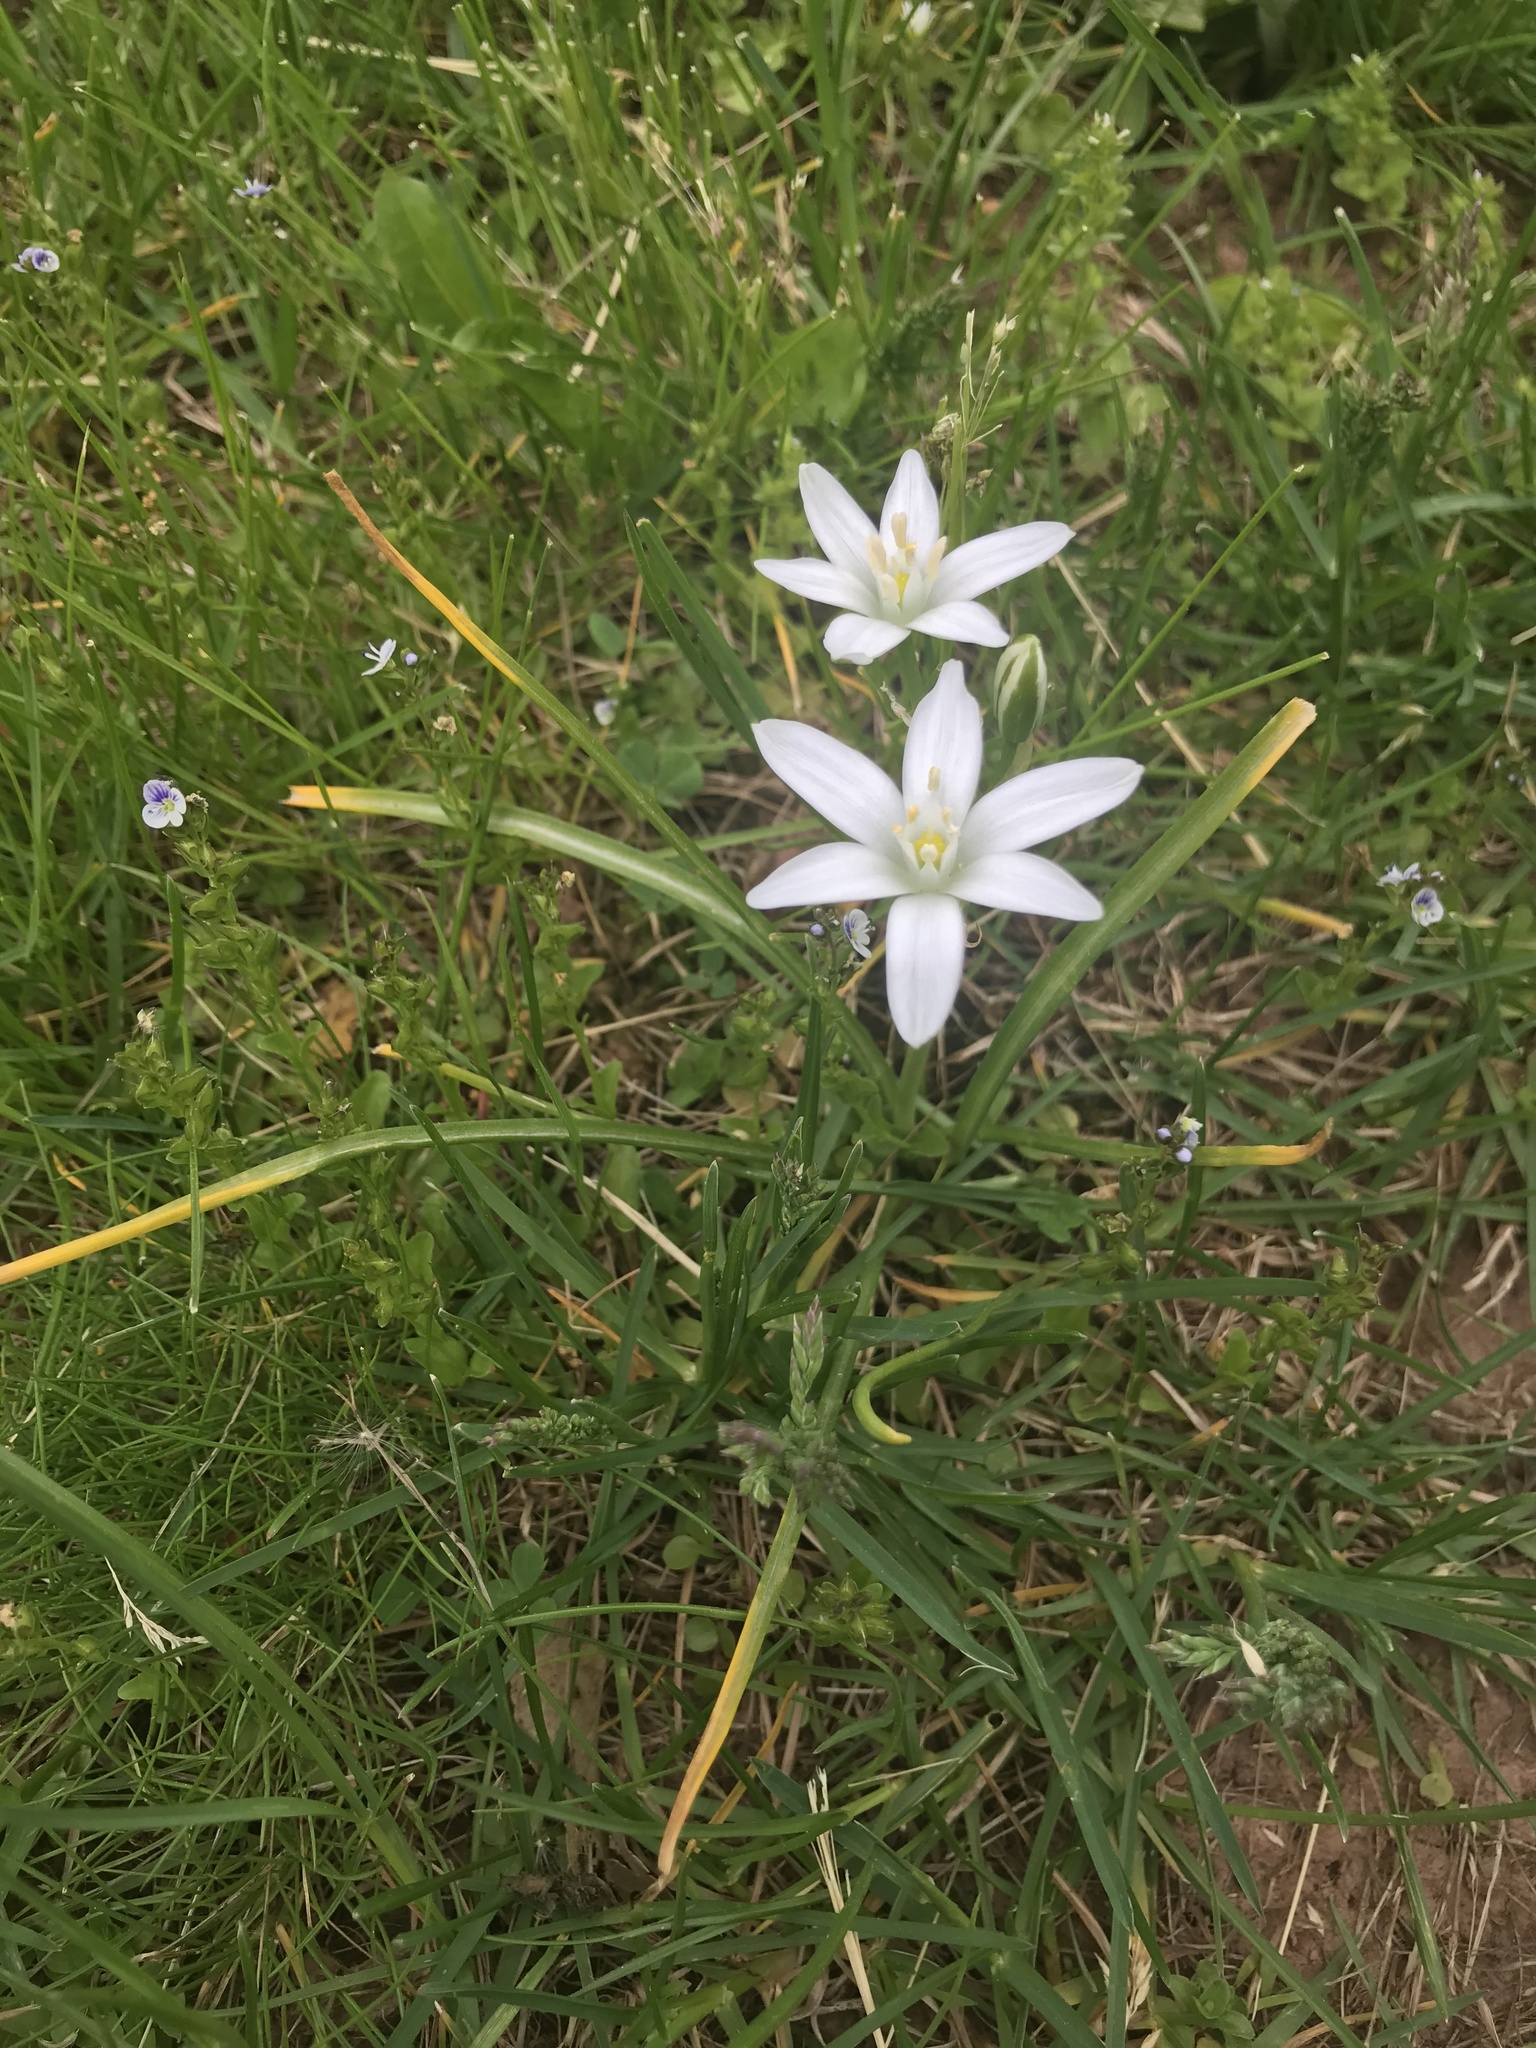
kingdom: Plantae
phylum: Tracheophyta
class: Liliopsida
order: Asparagales
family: Asparagaceae
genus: Ornithogalum
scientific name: Ornithogalum umbellatum
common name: Garden star-of-bethlehem
